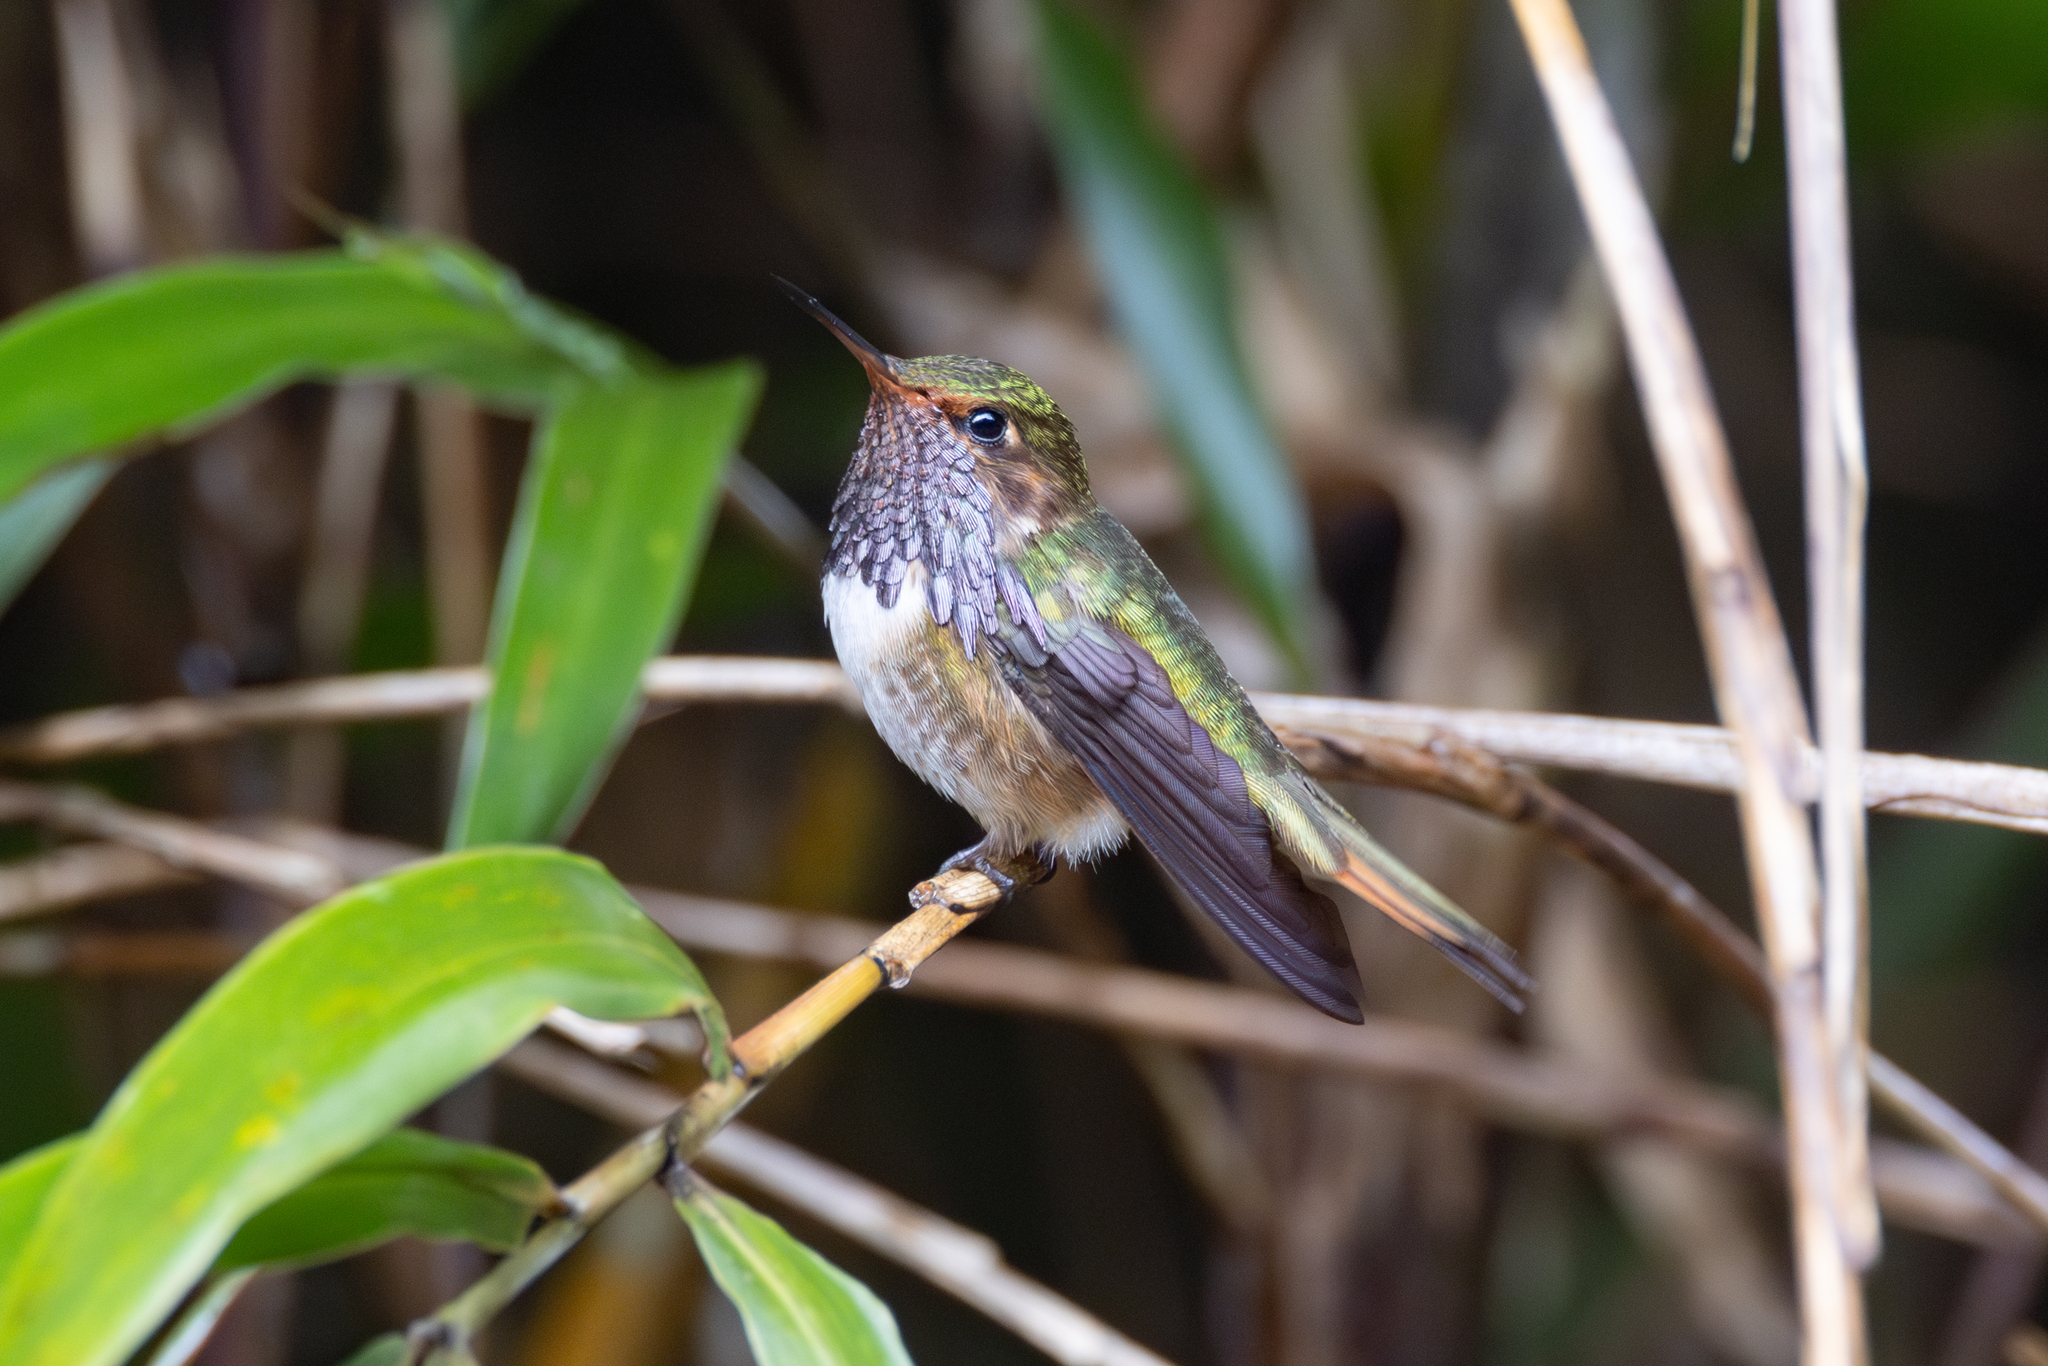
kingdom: Animalia
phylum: Chordata
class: Aves
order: Apodiformes
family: Trochilidae
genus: Selasphorus
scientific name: Selasphorus flammula
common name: Volcano hummingbird
